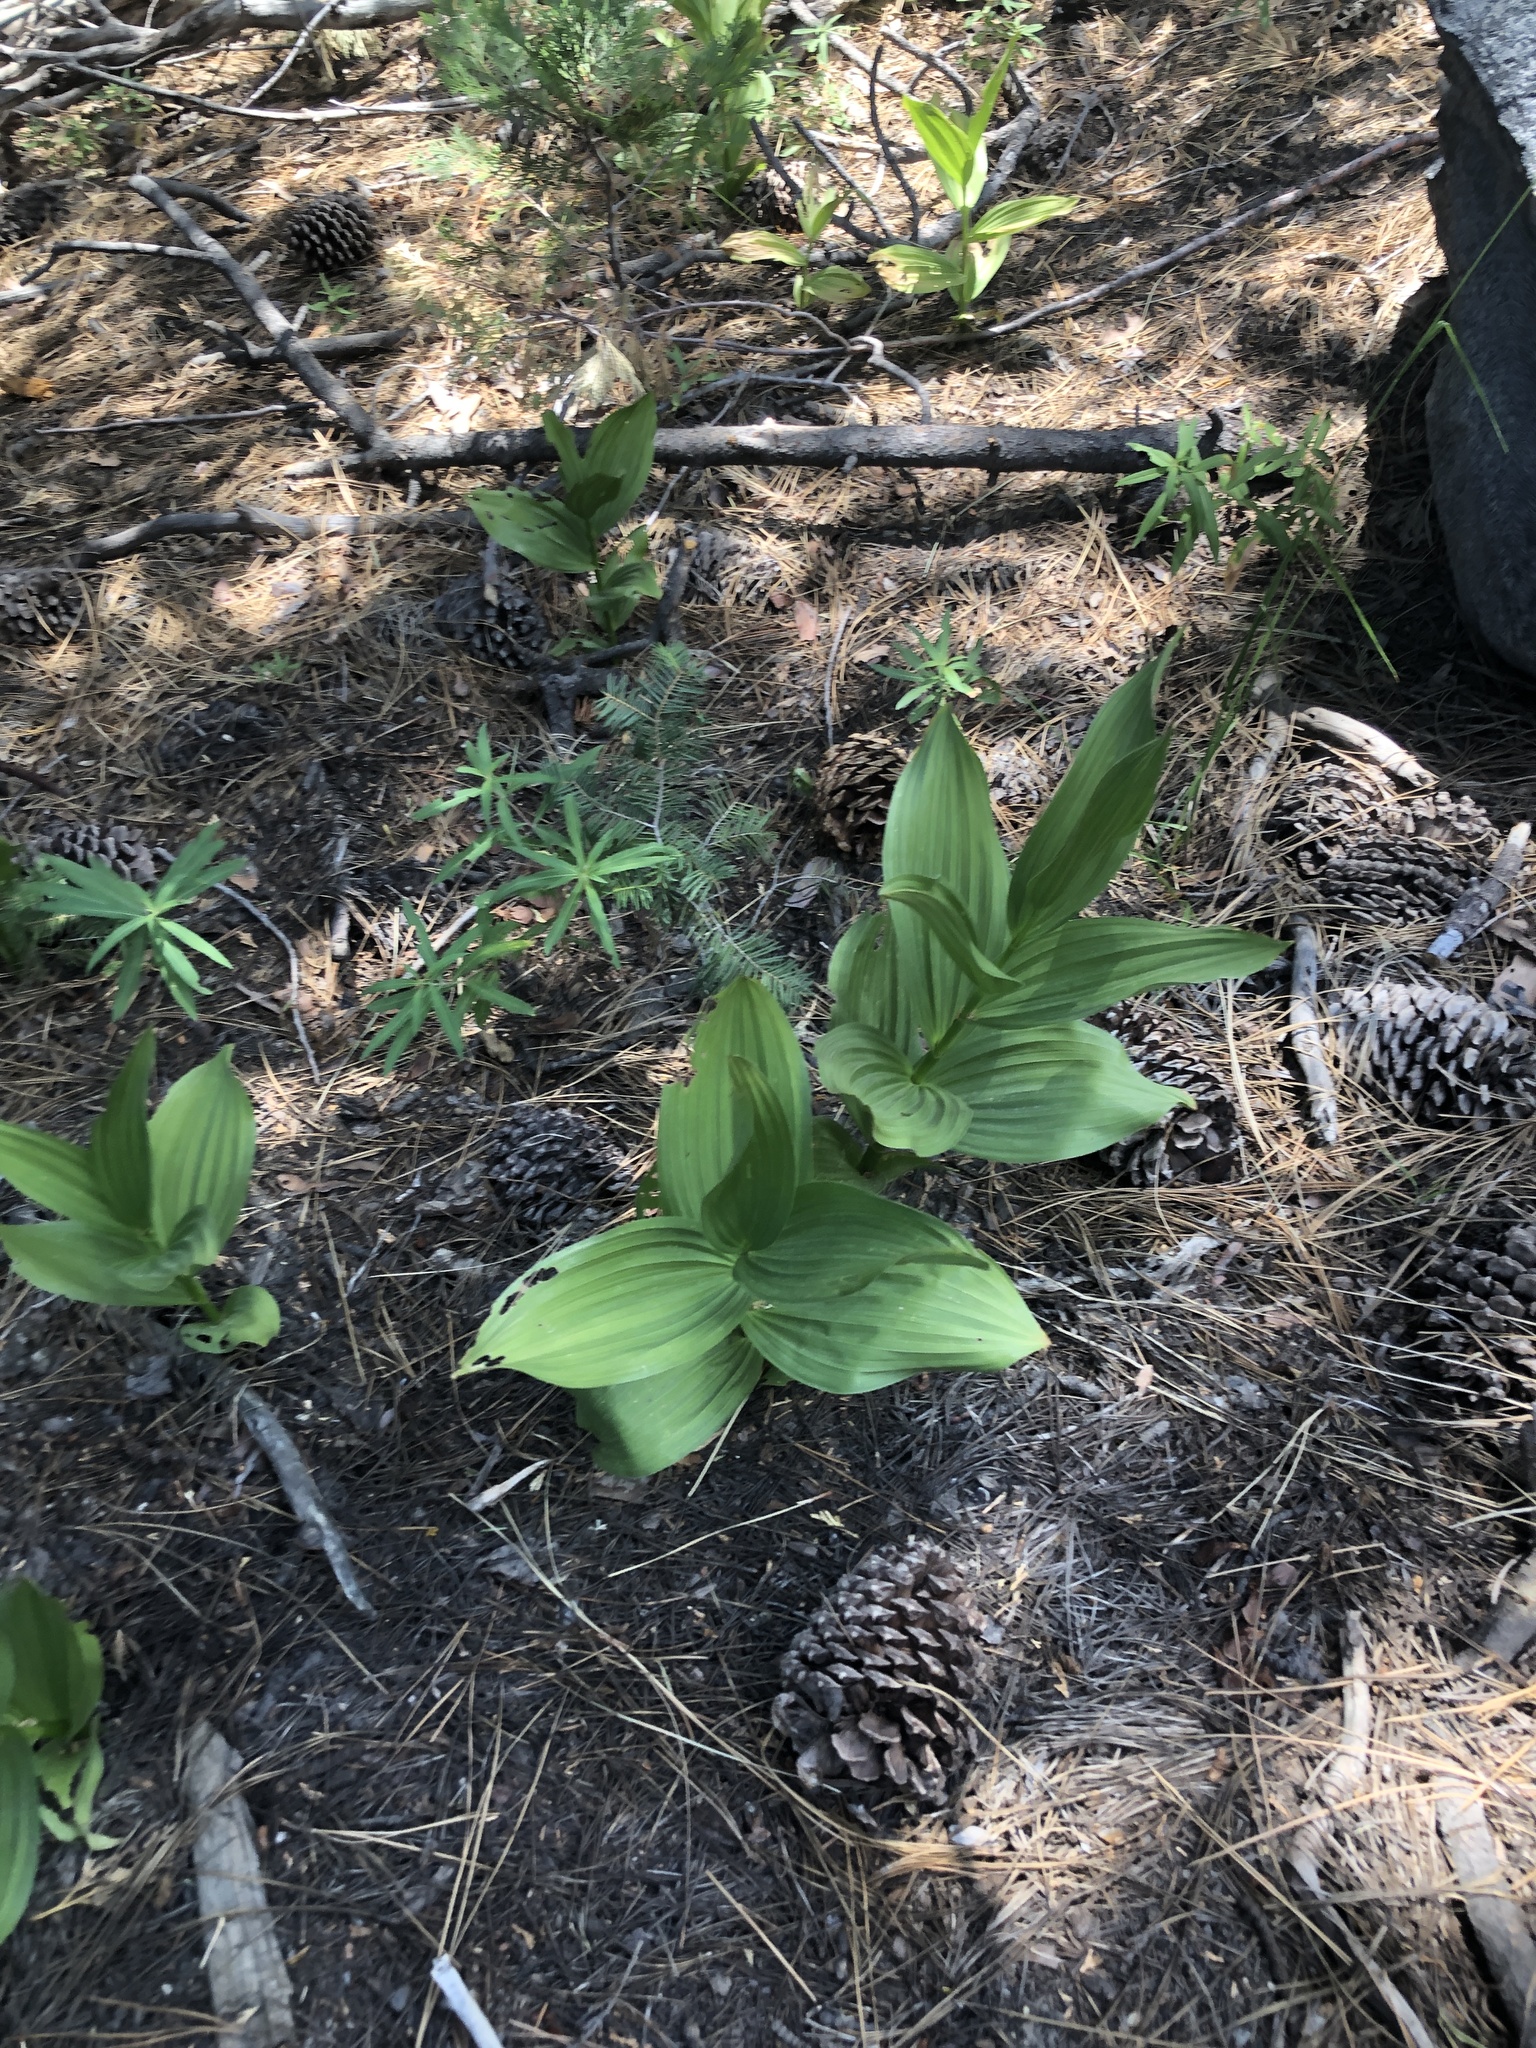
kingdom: Plantae
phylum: Tracheophyta
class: Liliopsida
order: Liliales
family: Melanthiaceae
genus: Veratrum
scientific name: Veratrum californicum
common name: California veratrum
